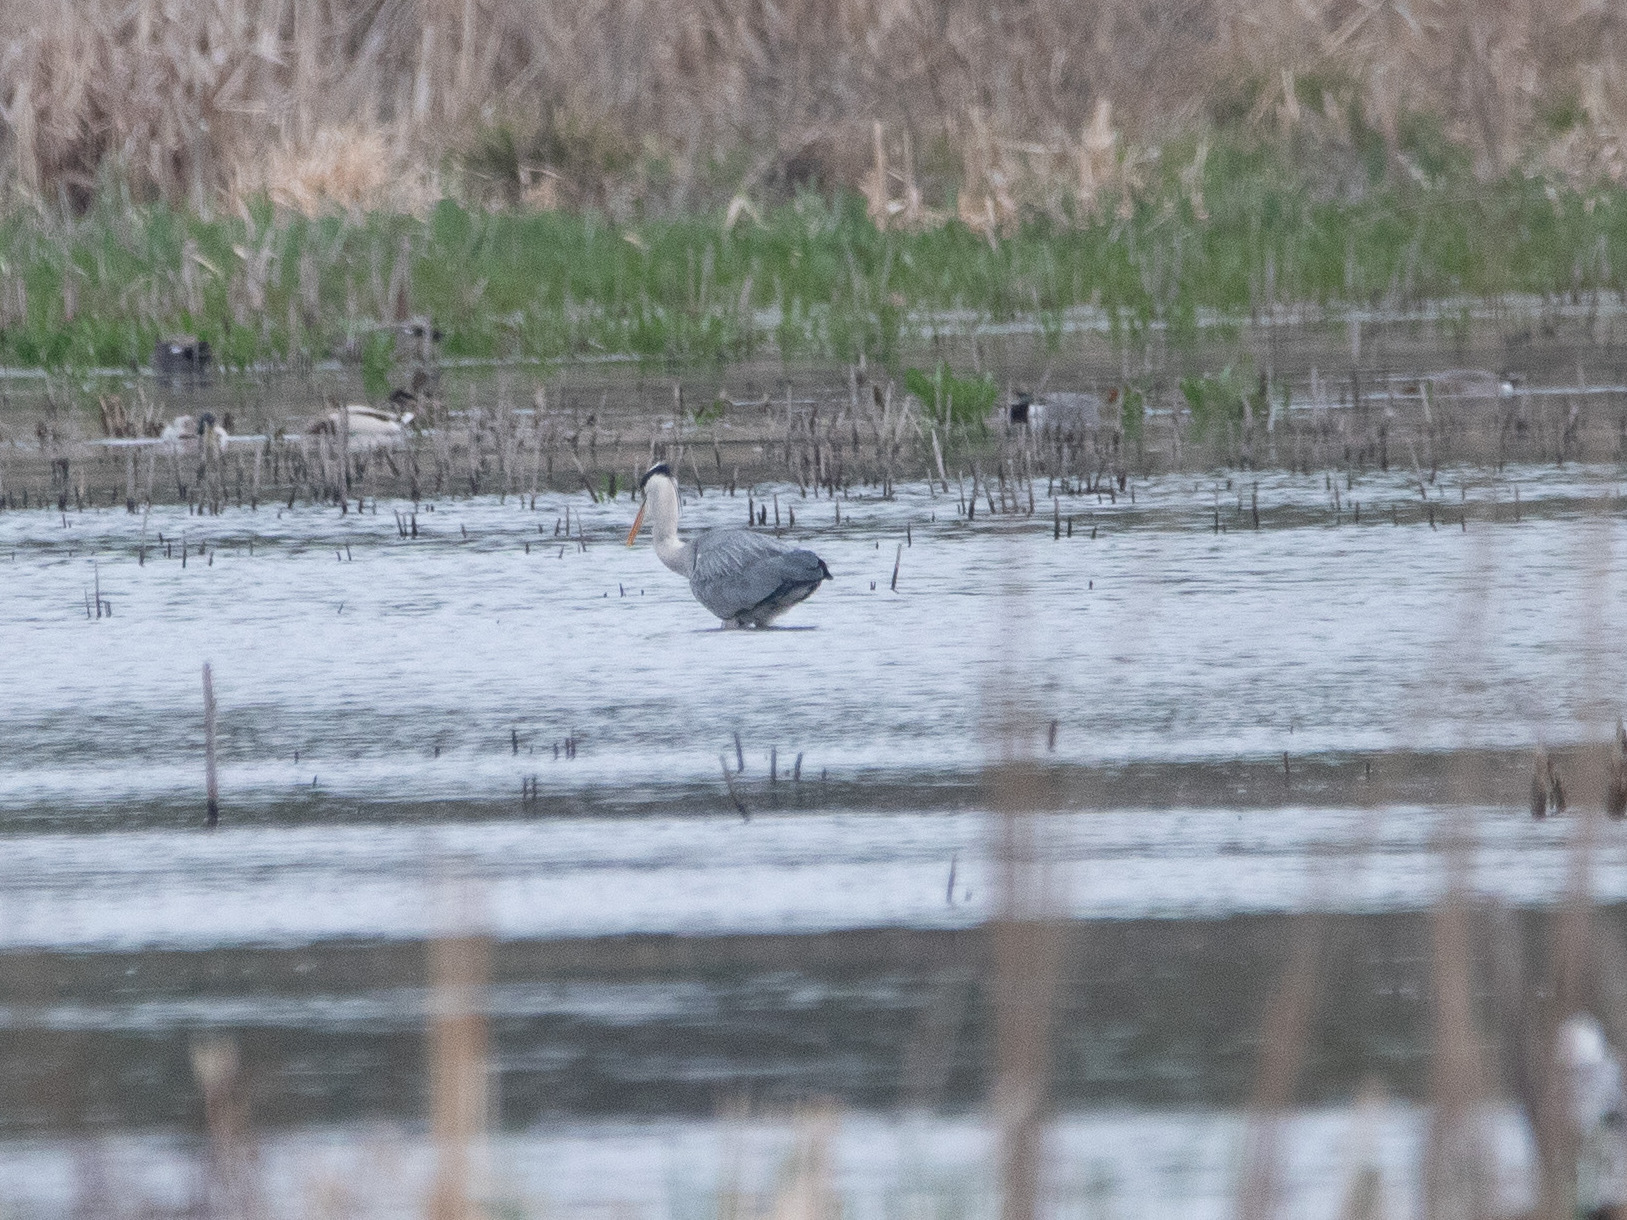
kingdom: Animalia
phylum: Chordata
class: Aves
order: Pelecaniformes
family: Ardeidae
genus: Ardea
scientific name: Ardea cinerea
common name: Grey heron
